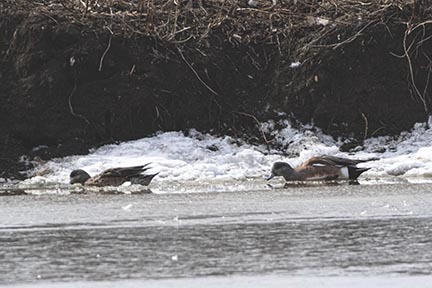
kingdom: Animalia
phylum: Chordata
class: Aves
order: Anseriformes
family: Anatidae
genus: Mareca
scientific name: Mareca americana
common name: American wigeon
